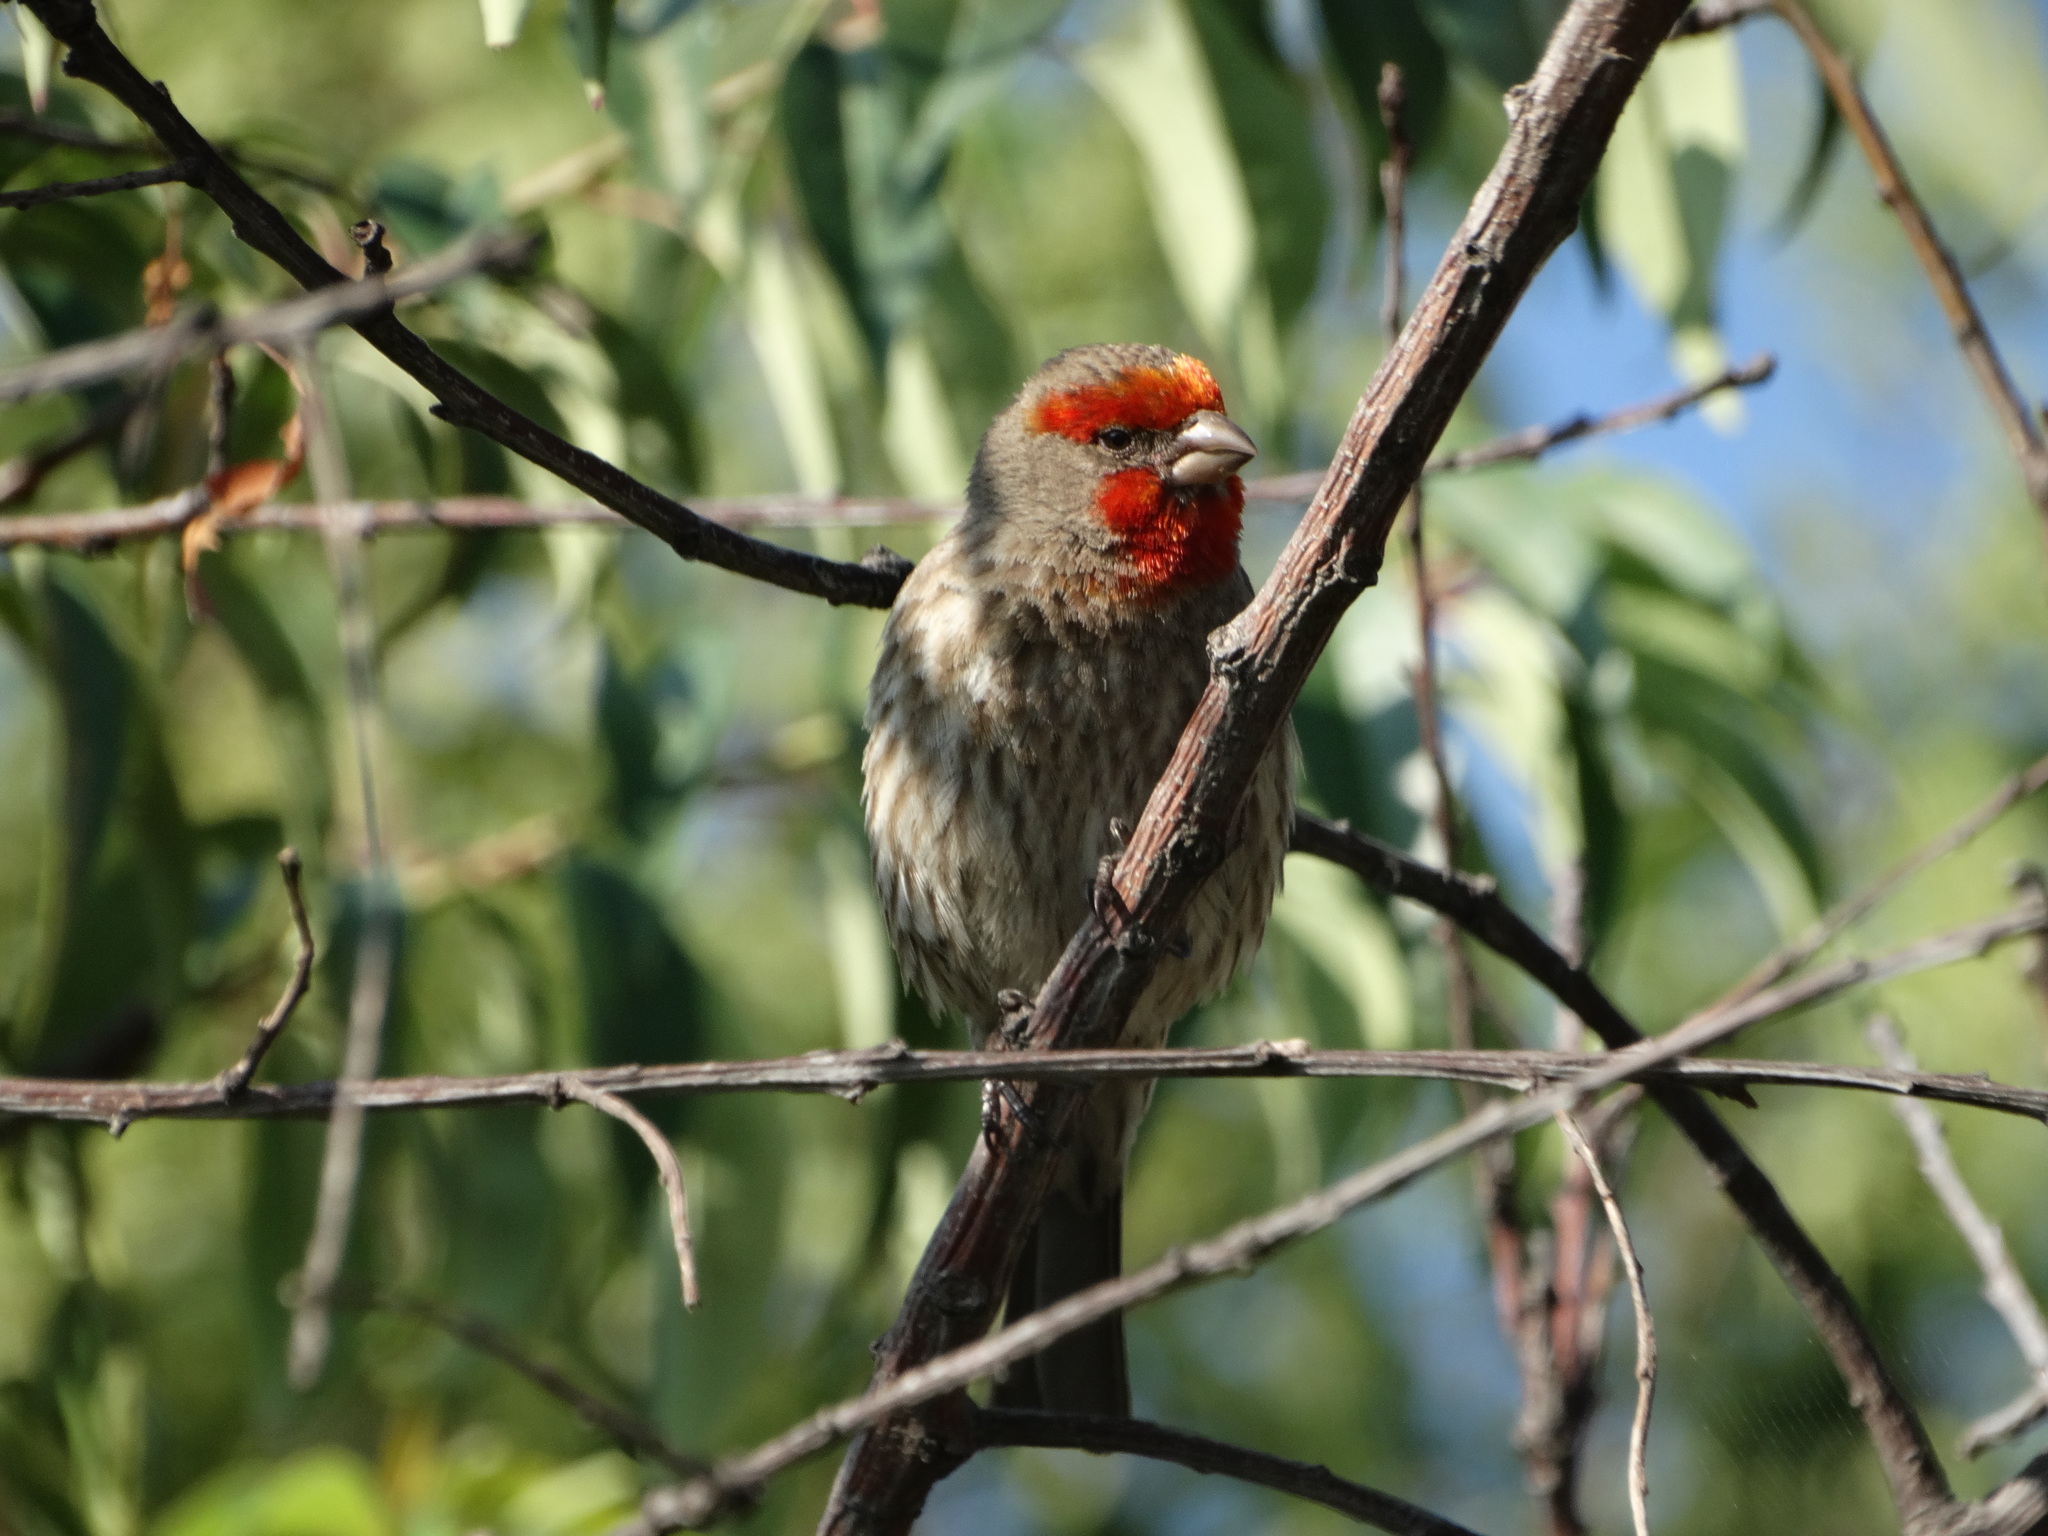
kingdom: Animalia
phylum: Chordata
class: Aves
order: Passeriformes
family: Fringillidae
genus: Haemorhous
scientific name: Haemorhous mexicanus
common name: House finch
